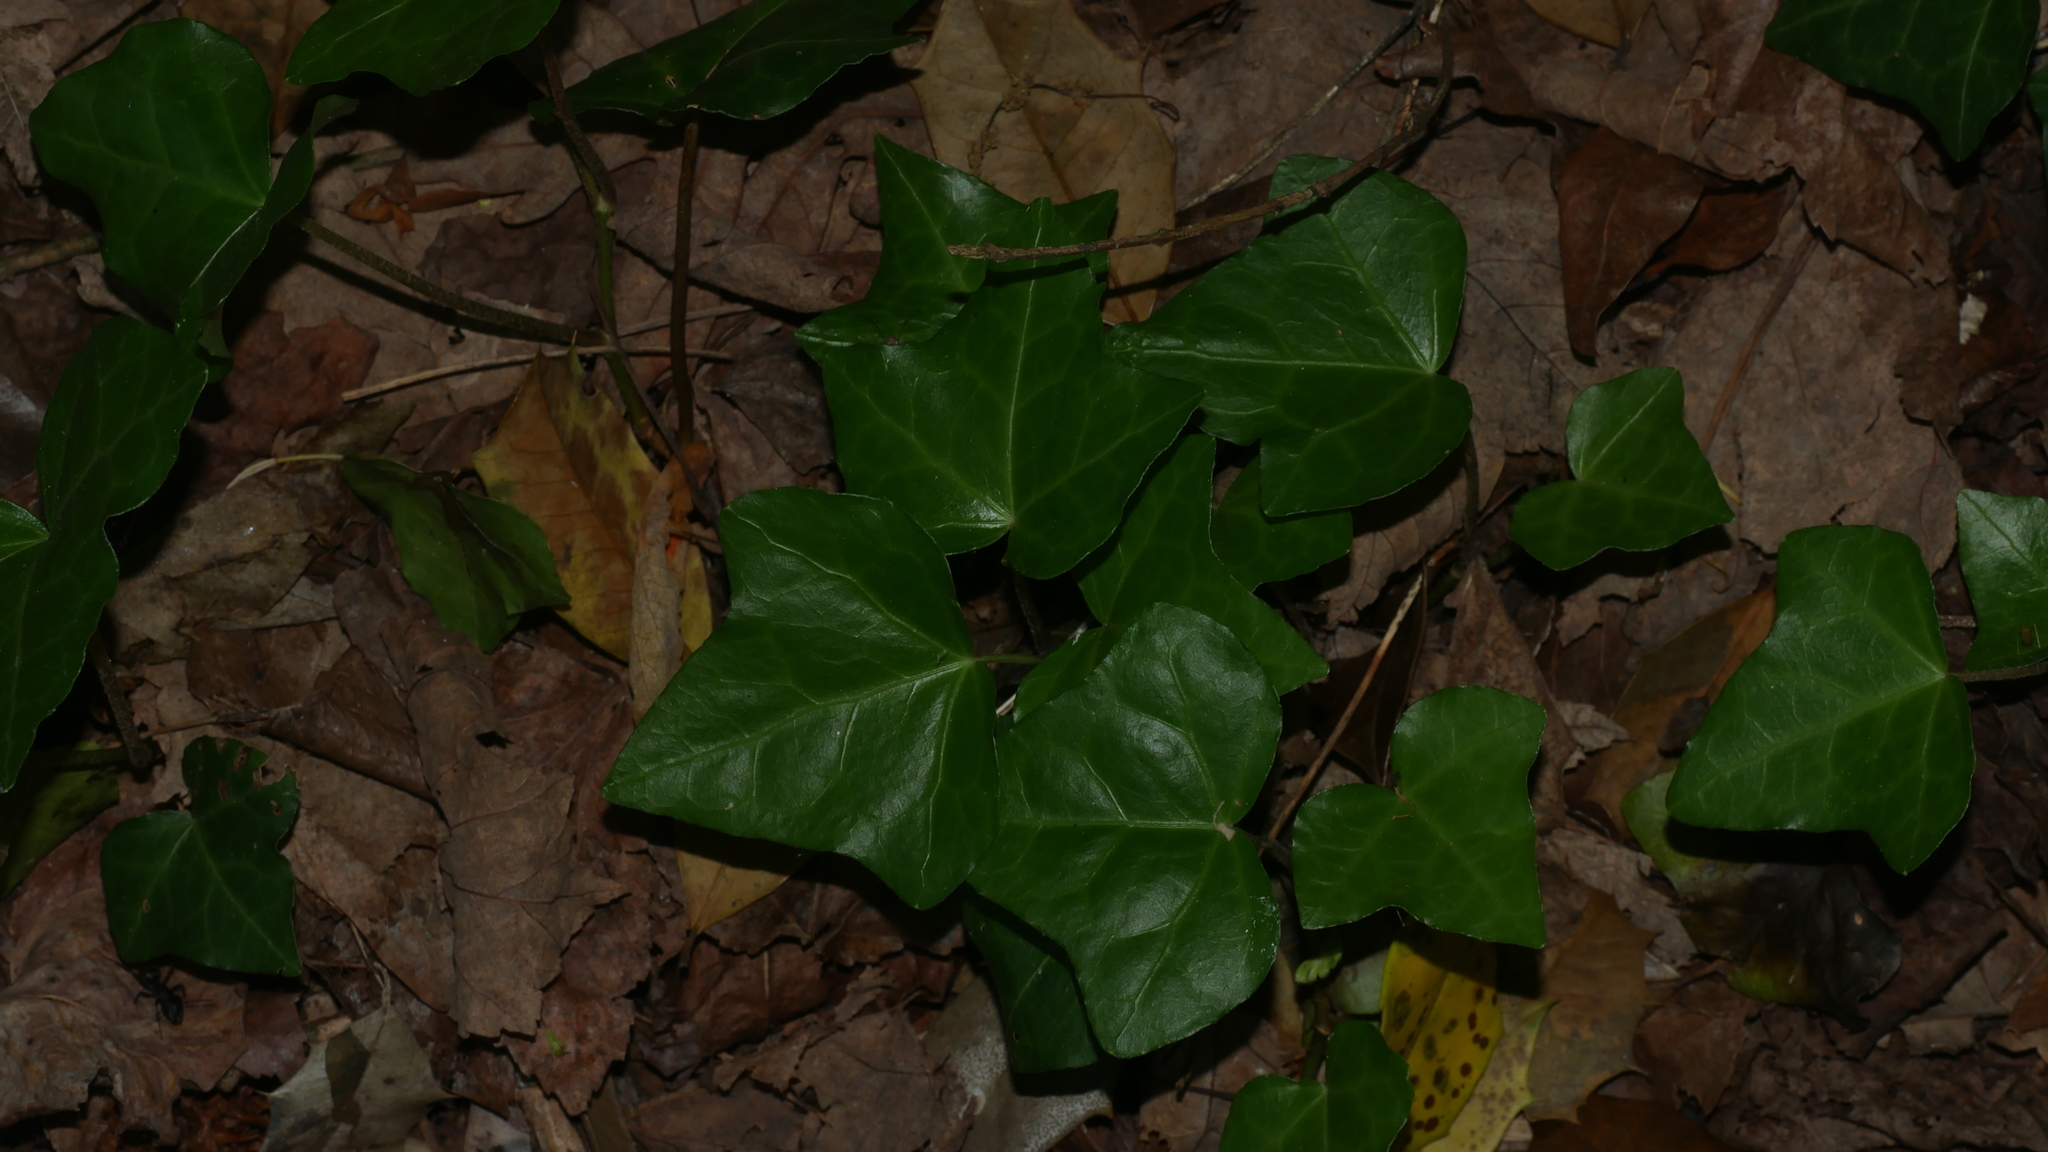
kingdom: Plantae
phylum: Tracheophyta
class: Magnoliopsida
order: Apiales
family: Araliaceae
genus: Hedera
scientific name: Hedera helix
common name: Ivy
